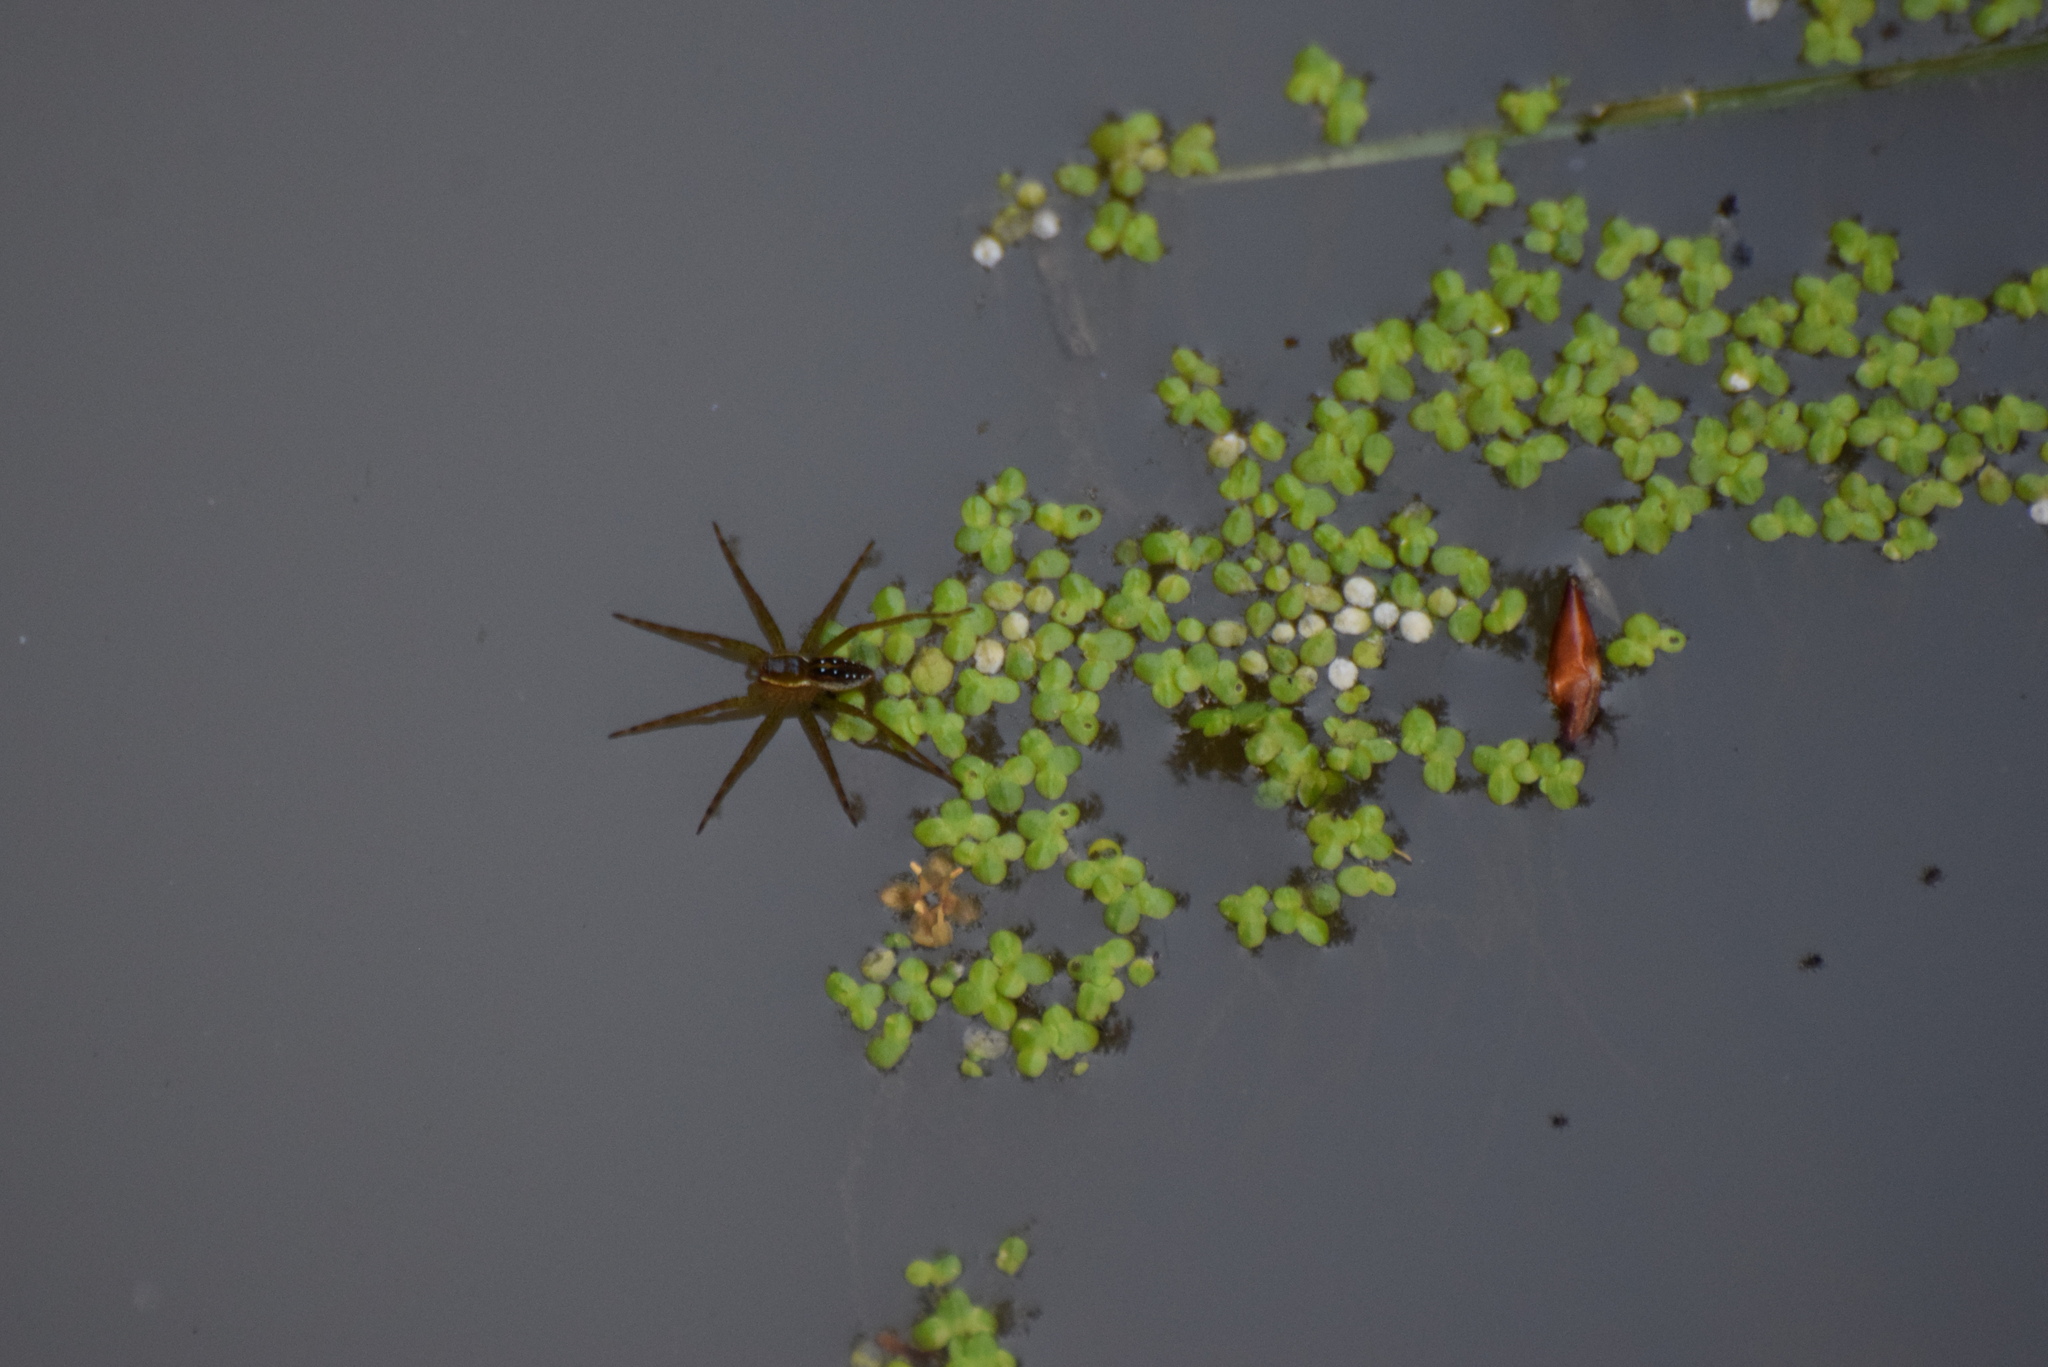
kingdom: Animalia
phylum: Arthropoda
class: Arachnida
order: Araneae
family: Pisauridae
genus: Dolomedes
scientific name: Dolomedes triton
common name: Six-spotted fishing spider
